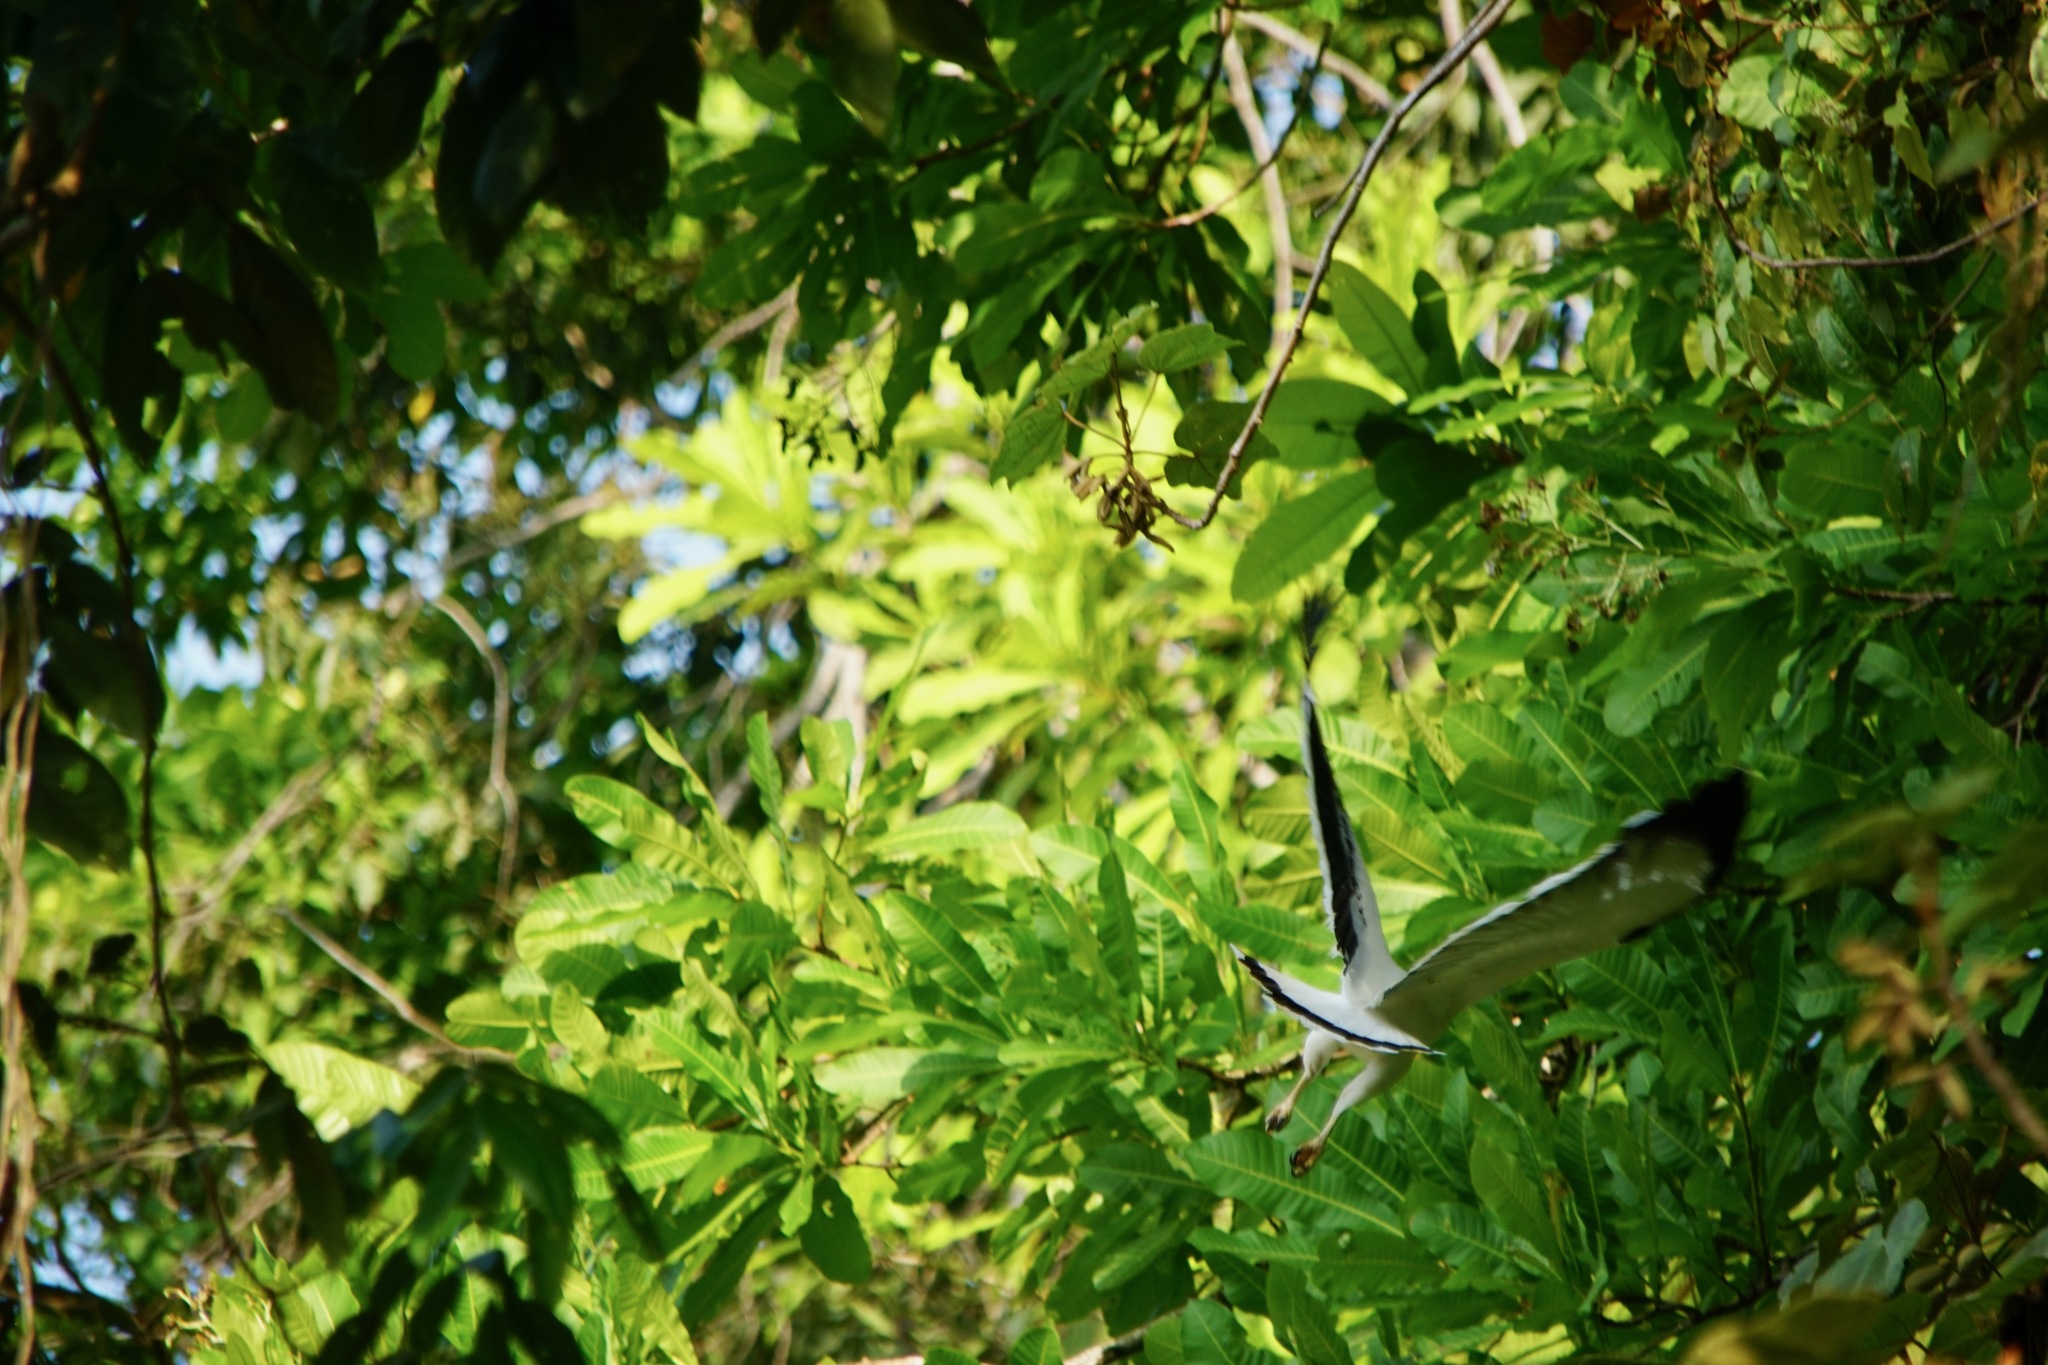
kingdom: Animalia
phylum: Chordata
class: Aves
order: Accipitriformes
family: Accipitridae
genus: Leucopternis
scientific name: Leucopternis albicollis
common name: White hawk
